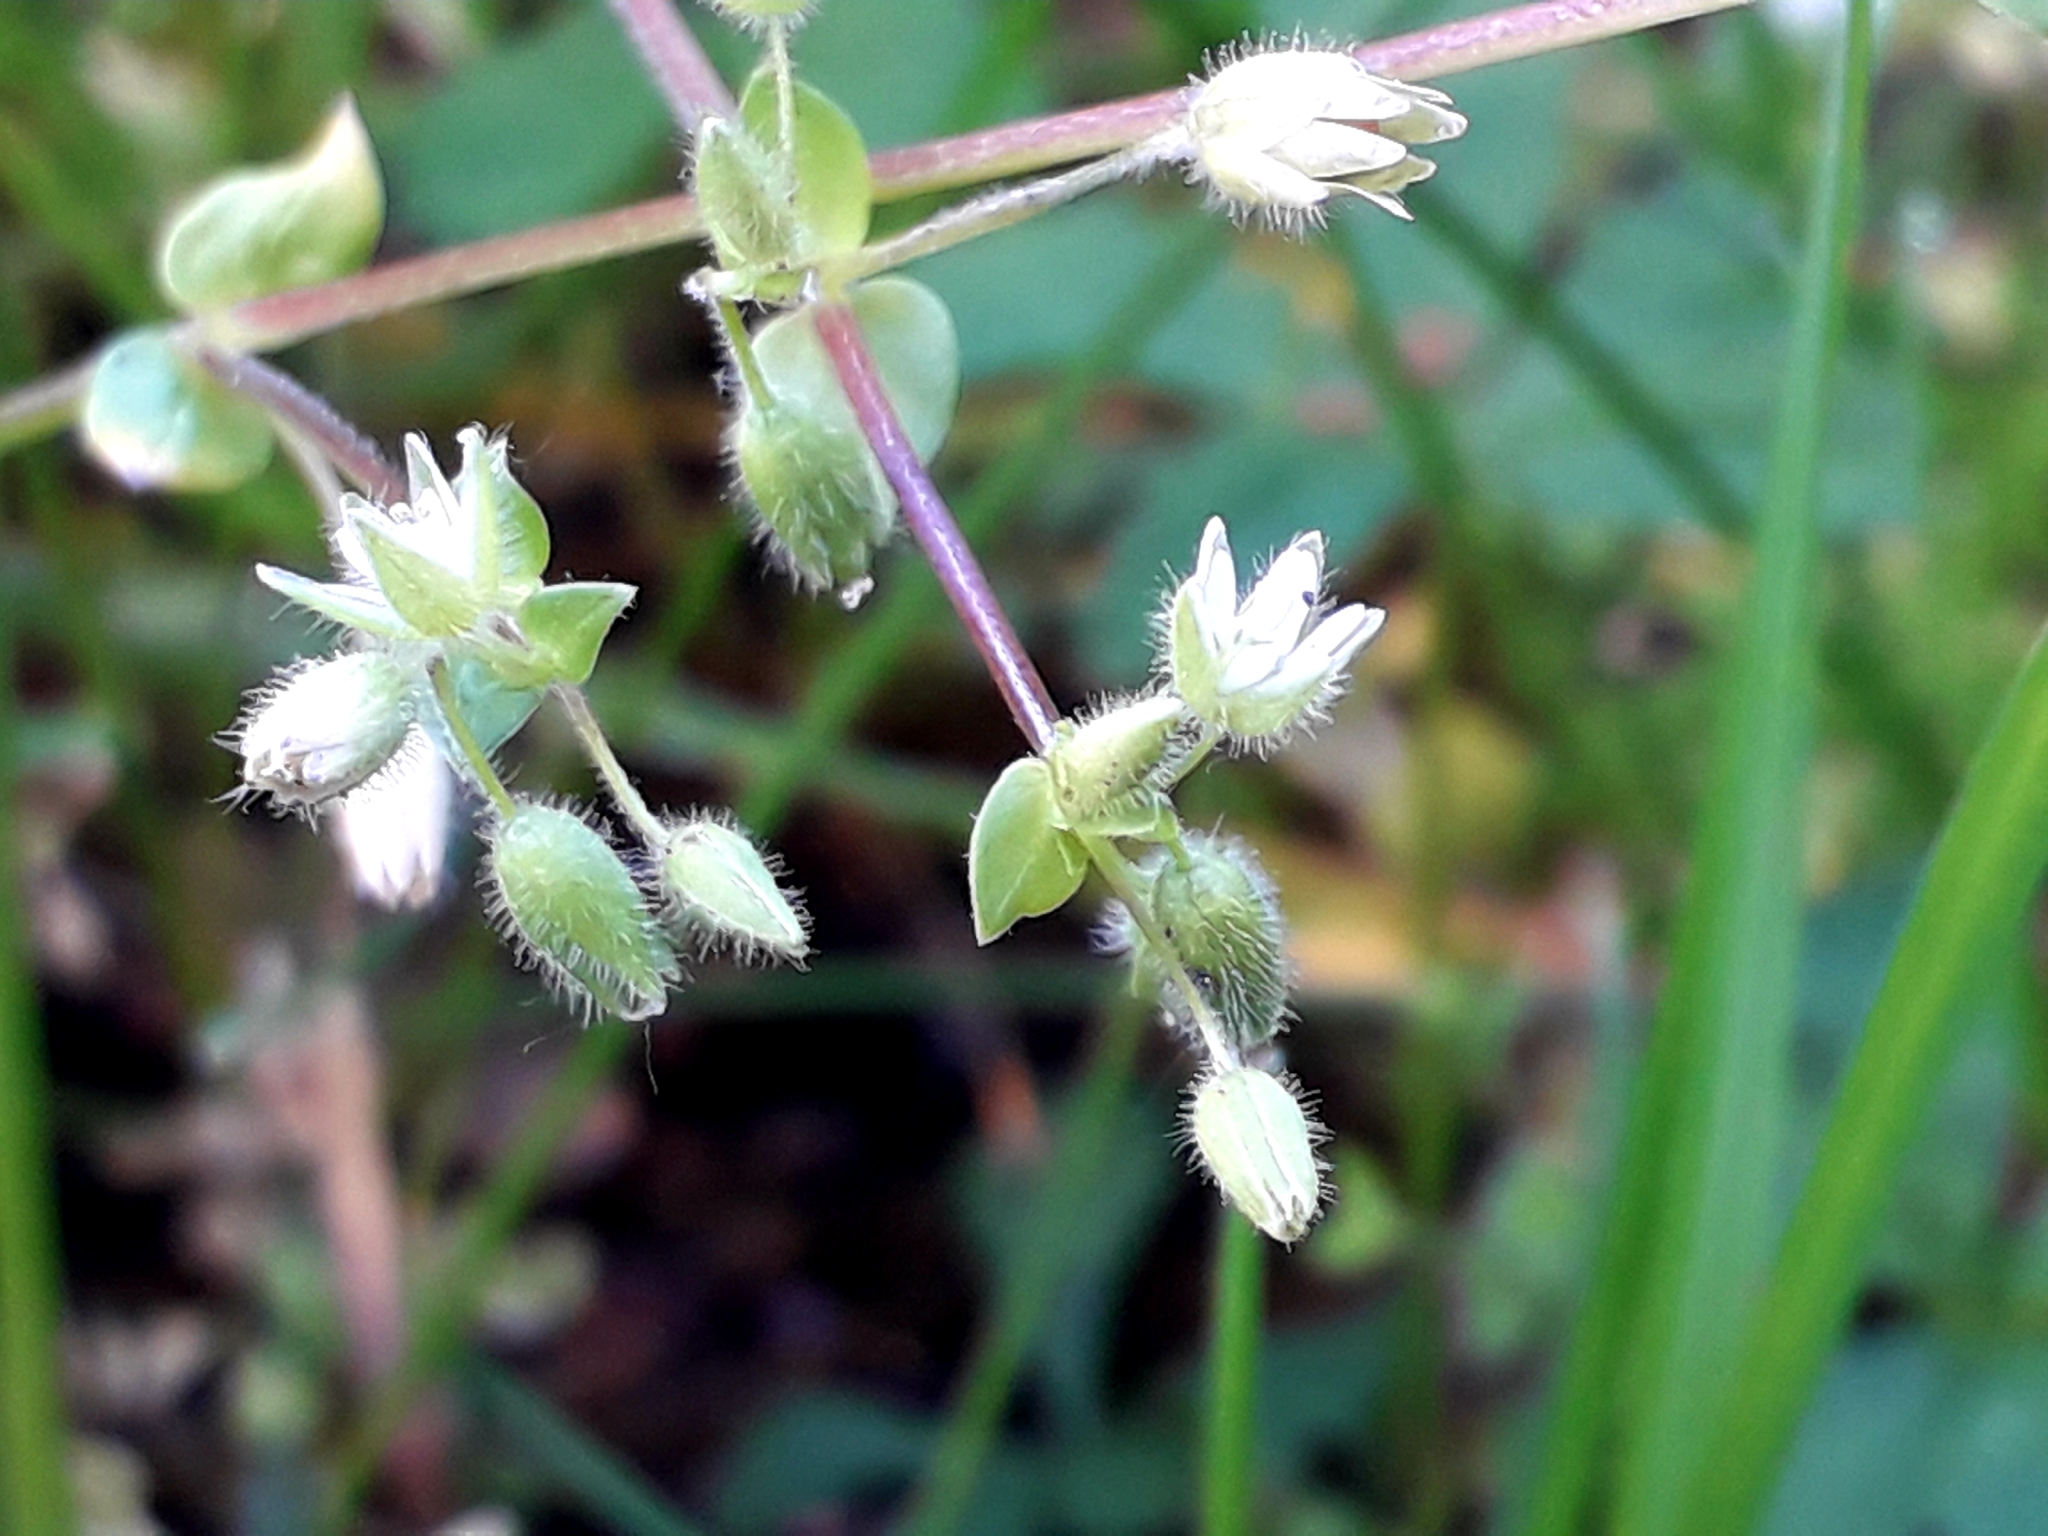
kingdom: Plantae
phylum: Tracheophyta
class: Magnoliopsida
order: Caryophyllales
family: Caryophyllaceae
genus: Stellaria
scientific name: Stellaria media
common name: Common chickweed
